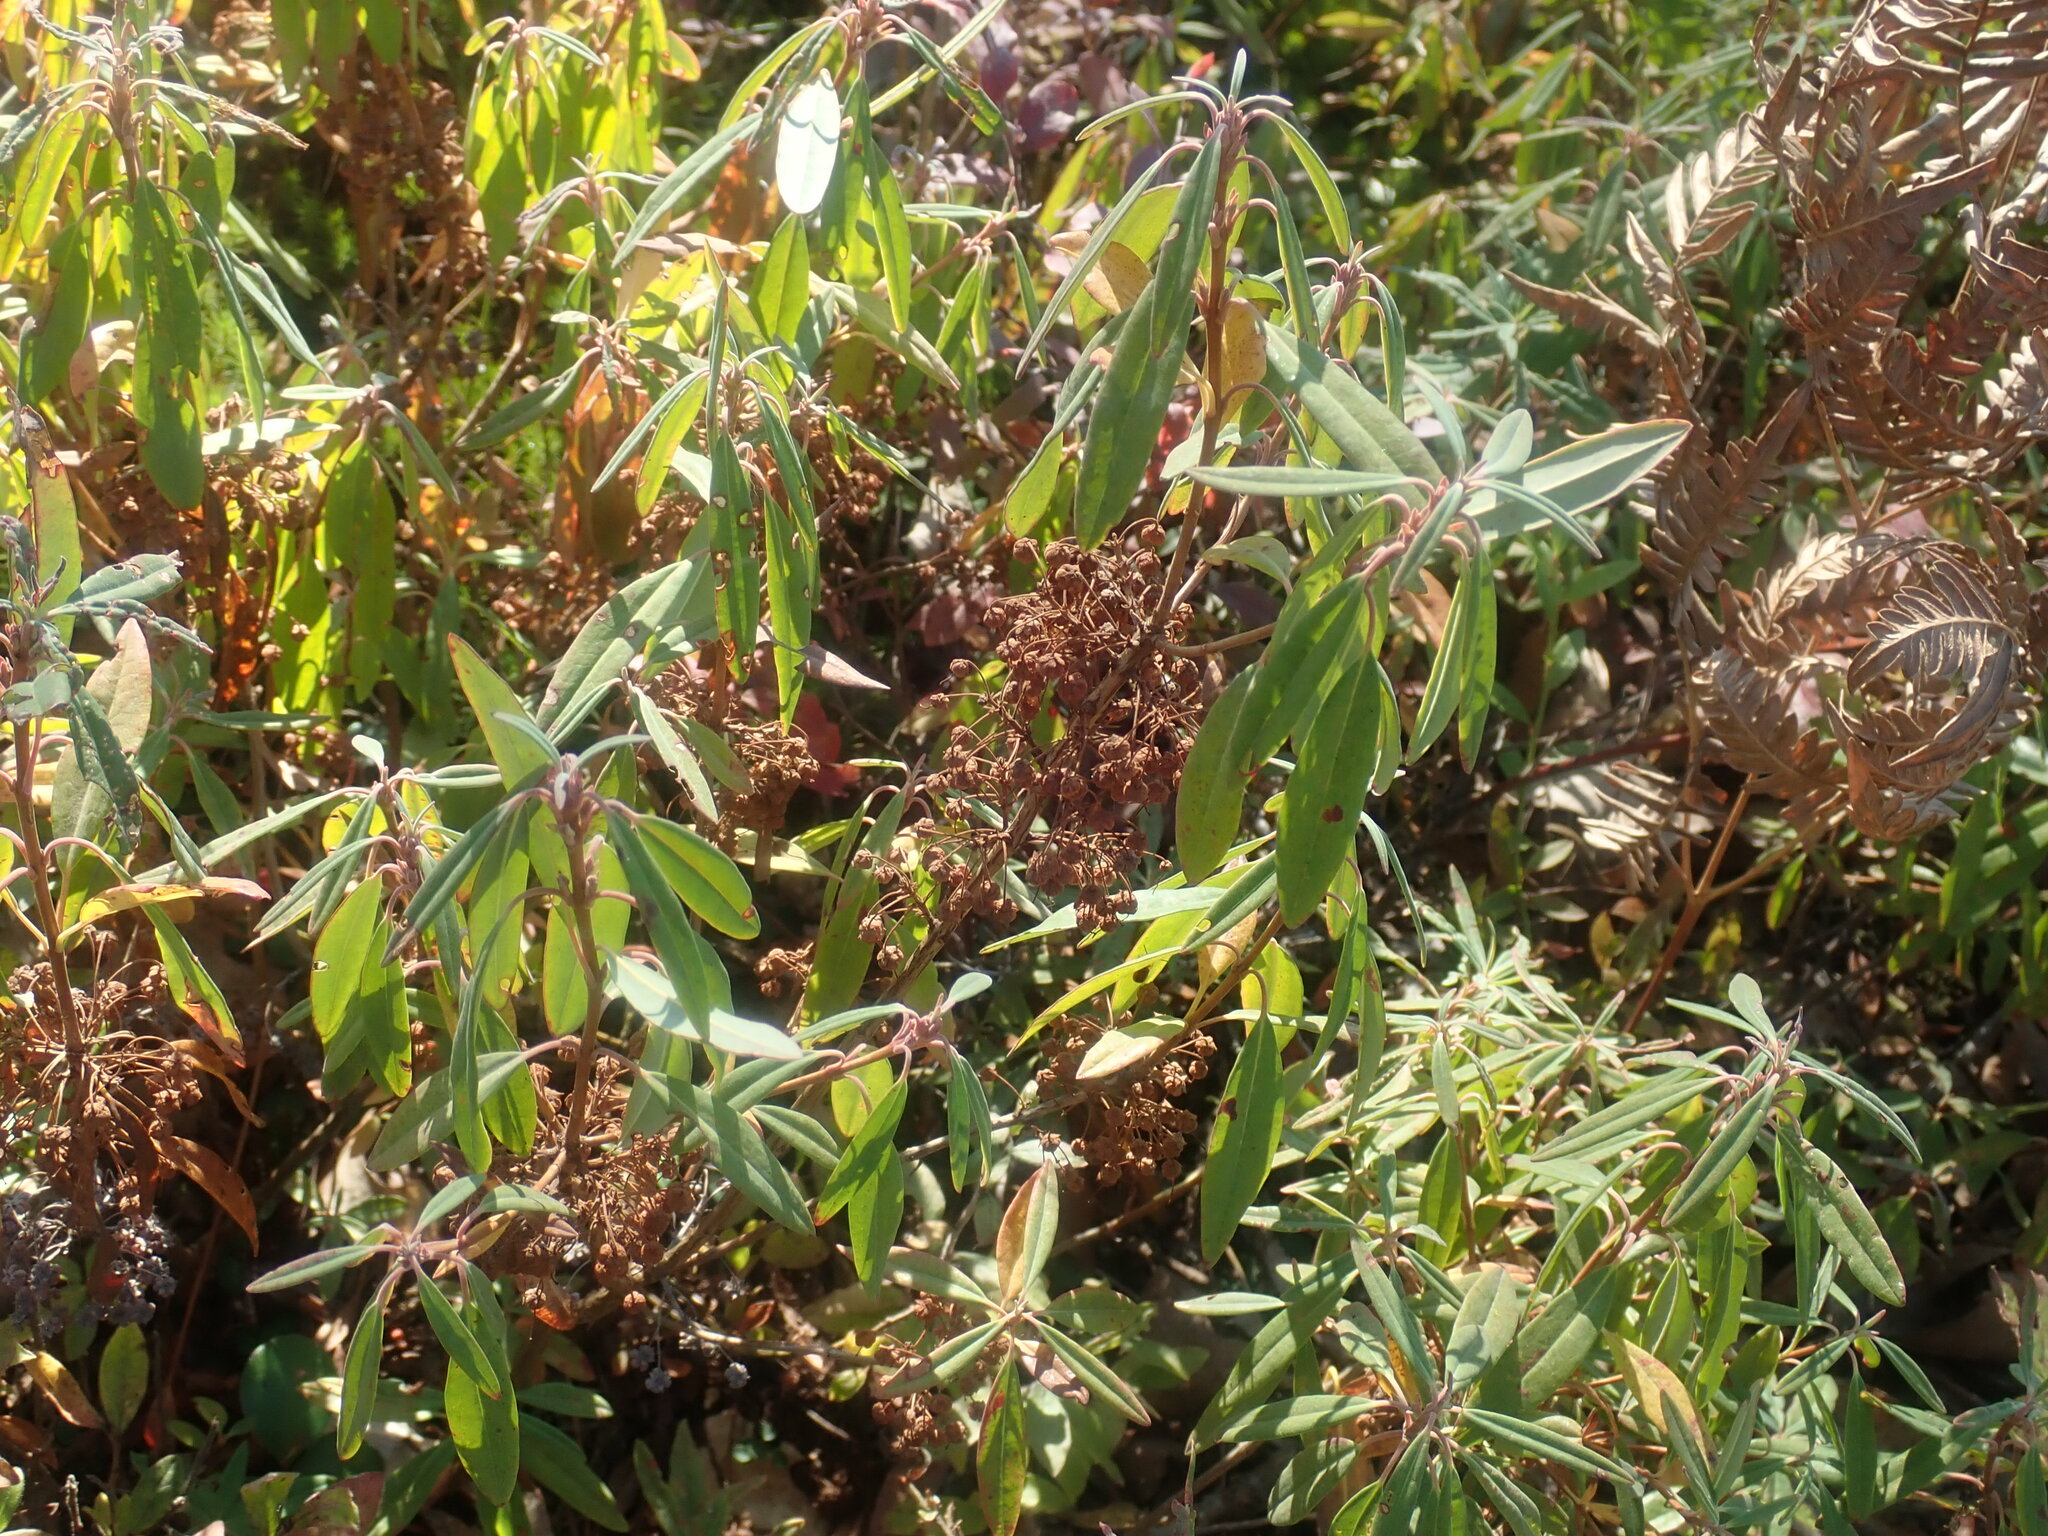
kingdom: Plantae
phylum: Tracheophyta
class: Magnoliopsida
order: Ericales
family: Ericaceae
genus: Kalmia
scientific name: Kalmia angustifolia
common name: Sheep-laurel
